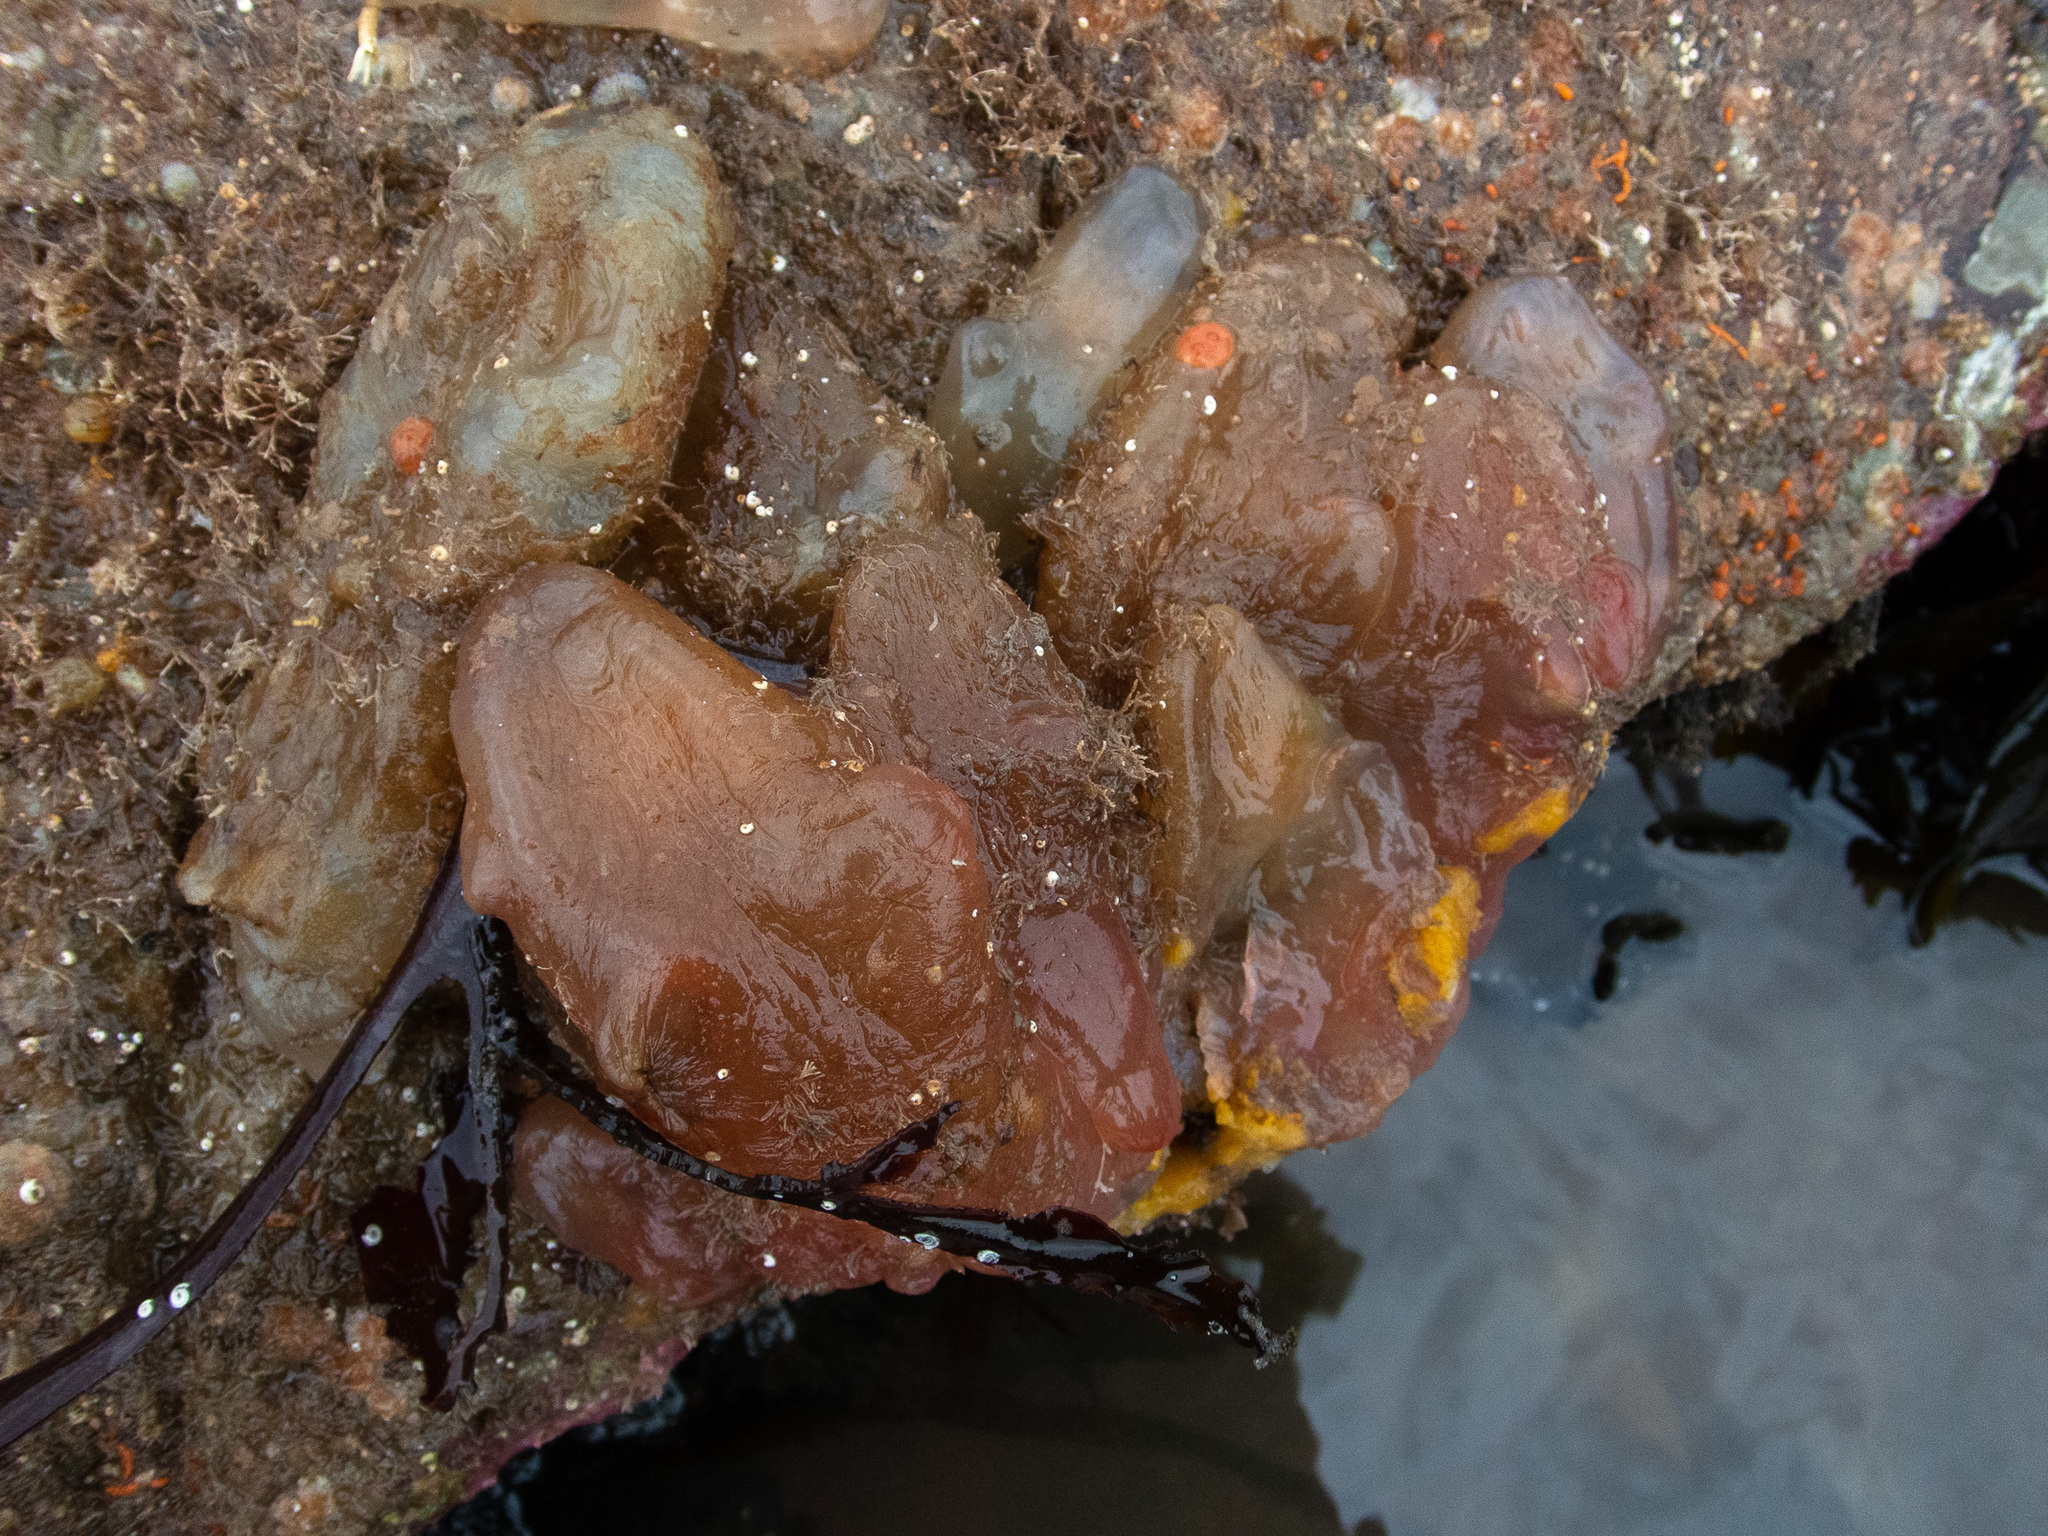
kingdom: Animalia
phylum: Chordata
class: Ascidiacea
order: Phlebobranchia
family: Ascidiidae
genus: Ascidia
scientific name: Ascidia mentula
